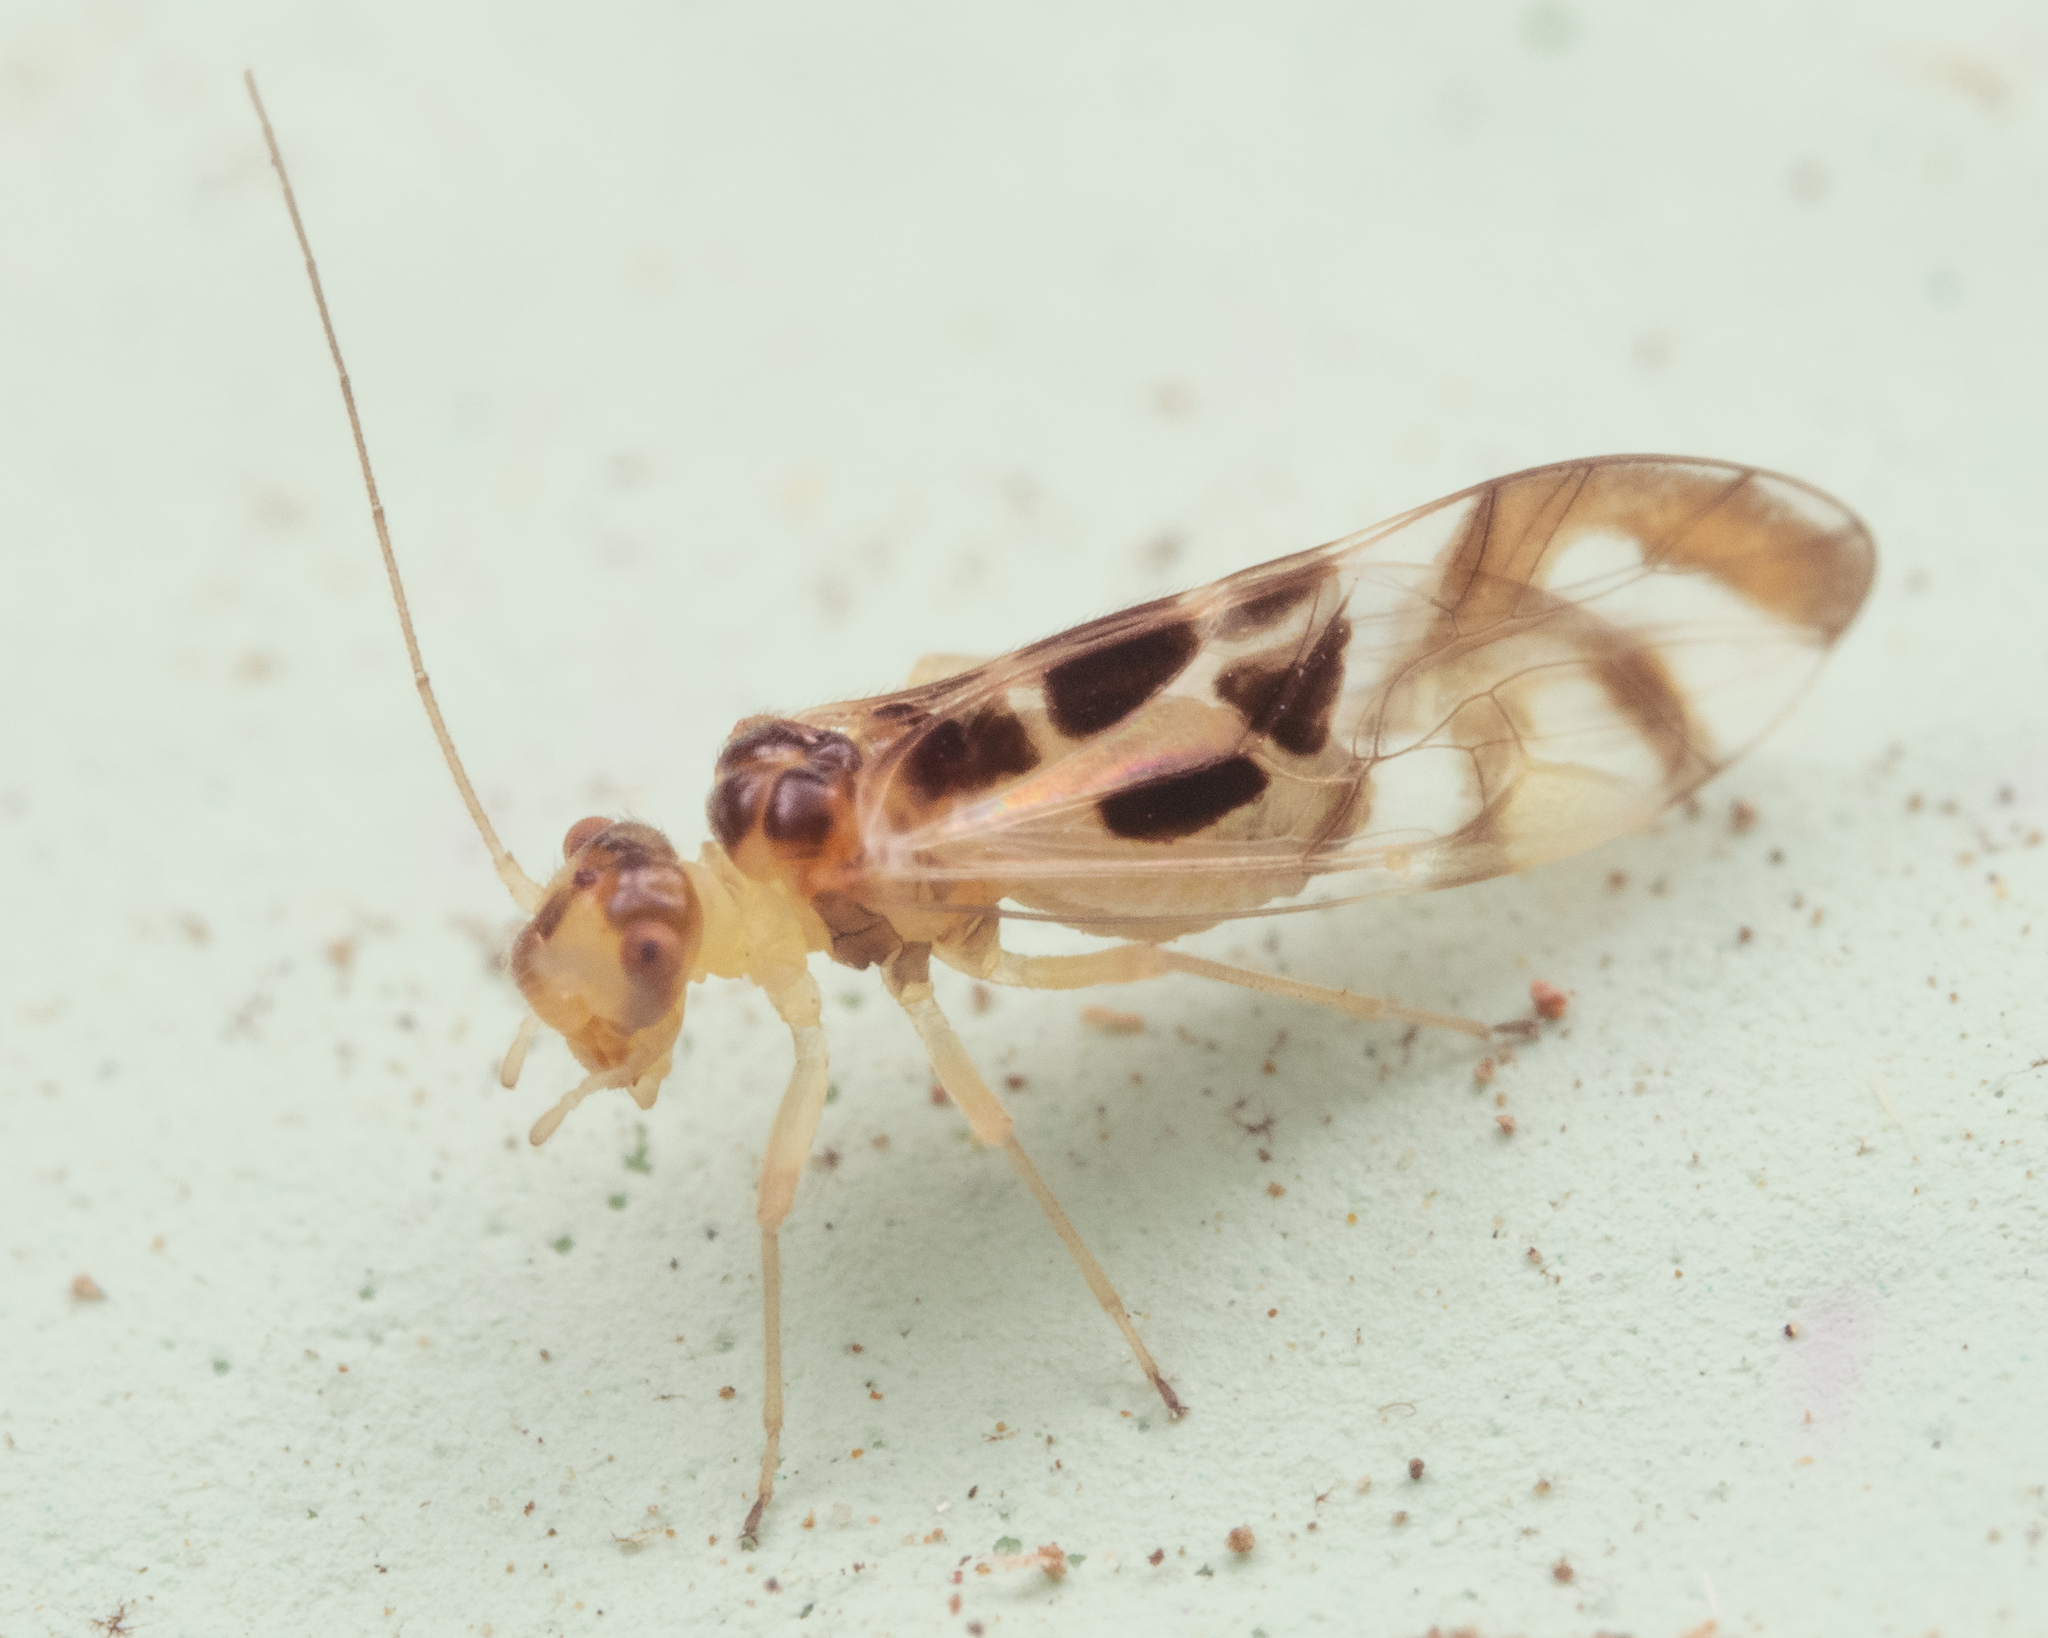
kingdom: Animalia
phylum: Arthropoda
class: Insecta
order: Psocodea
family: Stenopsocidae
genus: Graphopsocus
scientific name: Graphopsocus cruciatus
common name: Lizard bark louse
